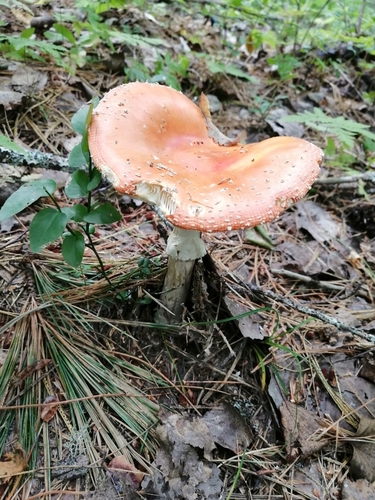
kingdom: Fungi
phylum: Basidiomycota
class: Agaricomycetes
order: Agaricales
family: Amanitaceae
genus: Amanita
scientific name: Amanita muscaria
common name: Fly agaric
